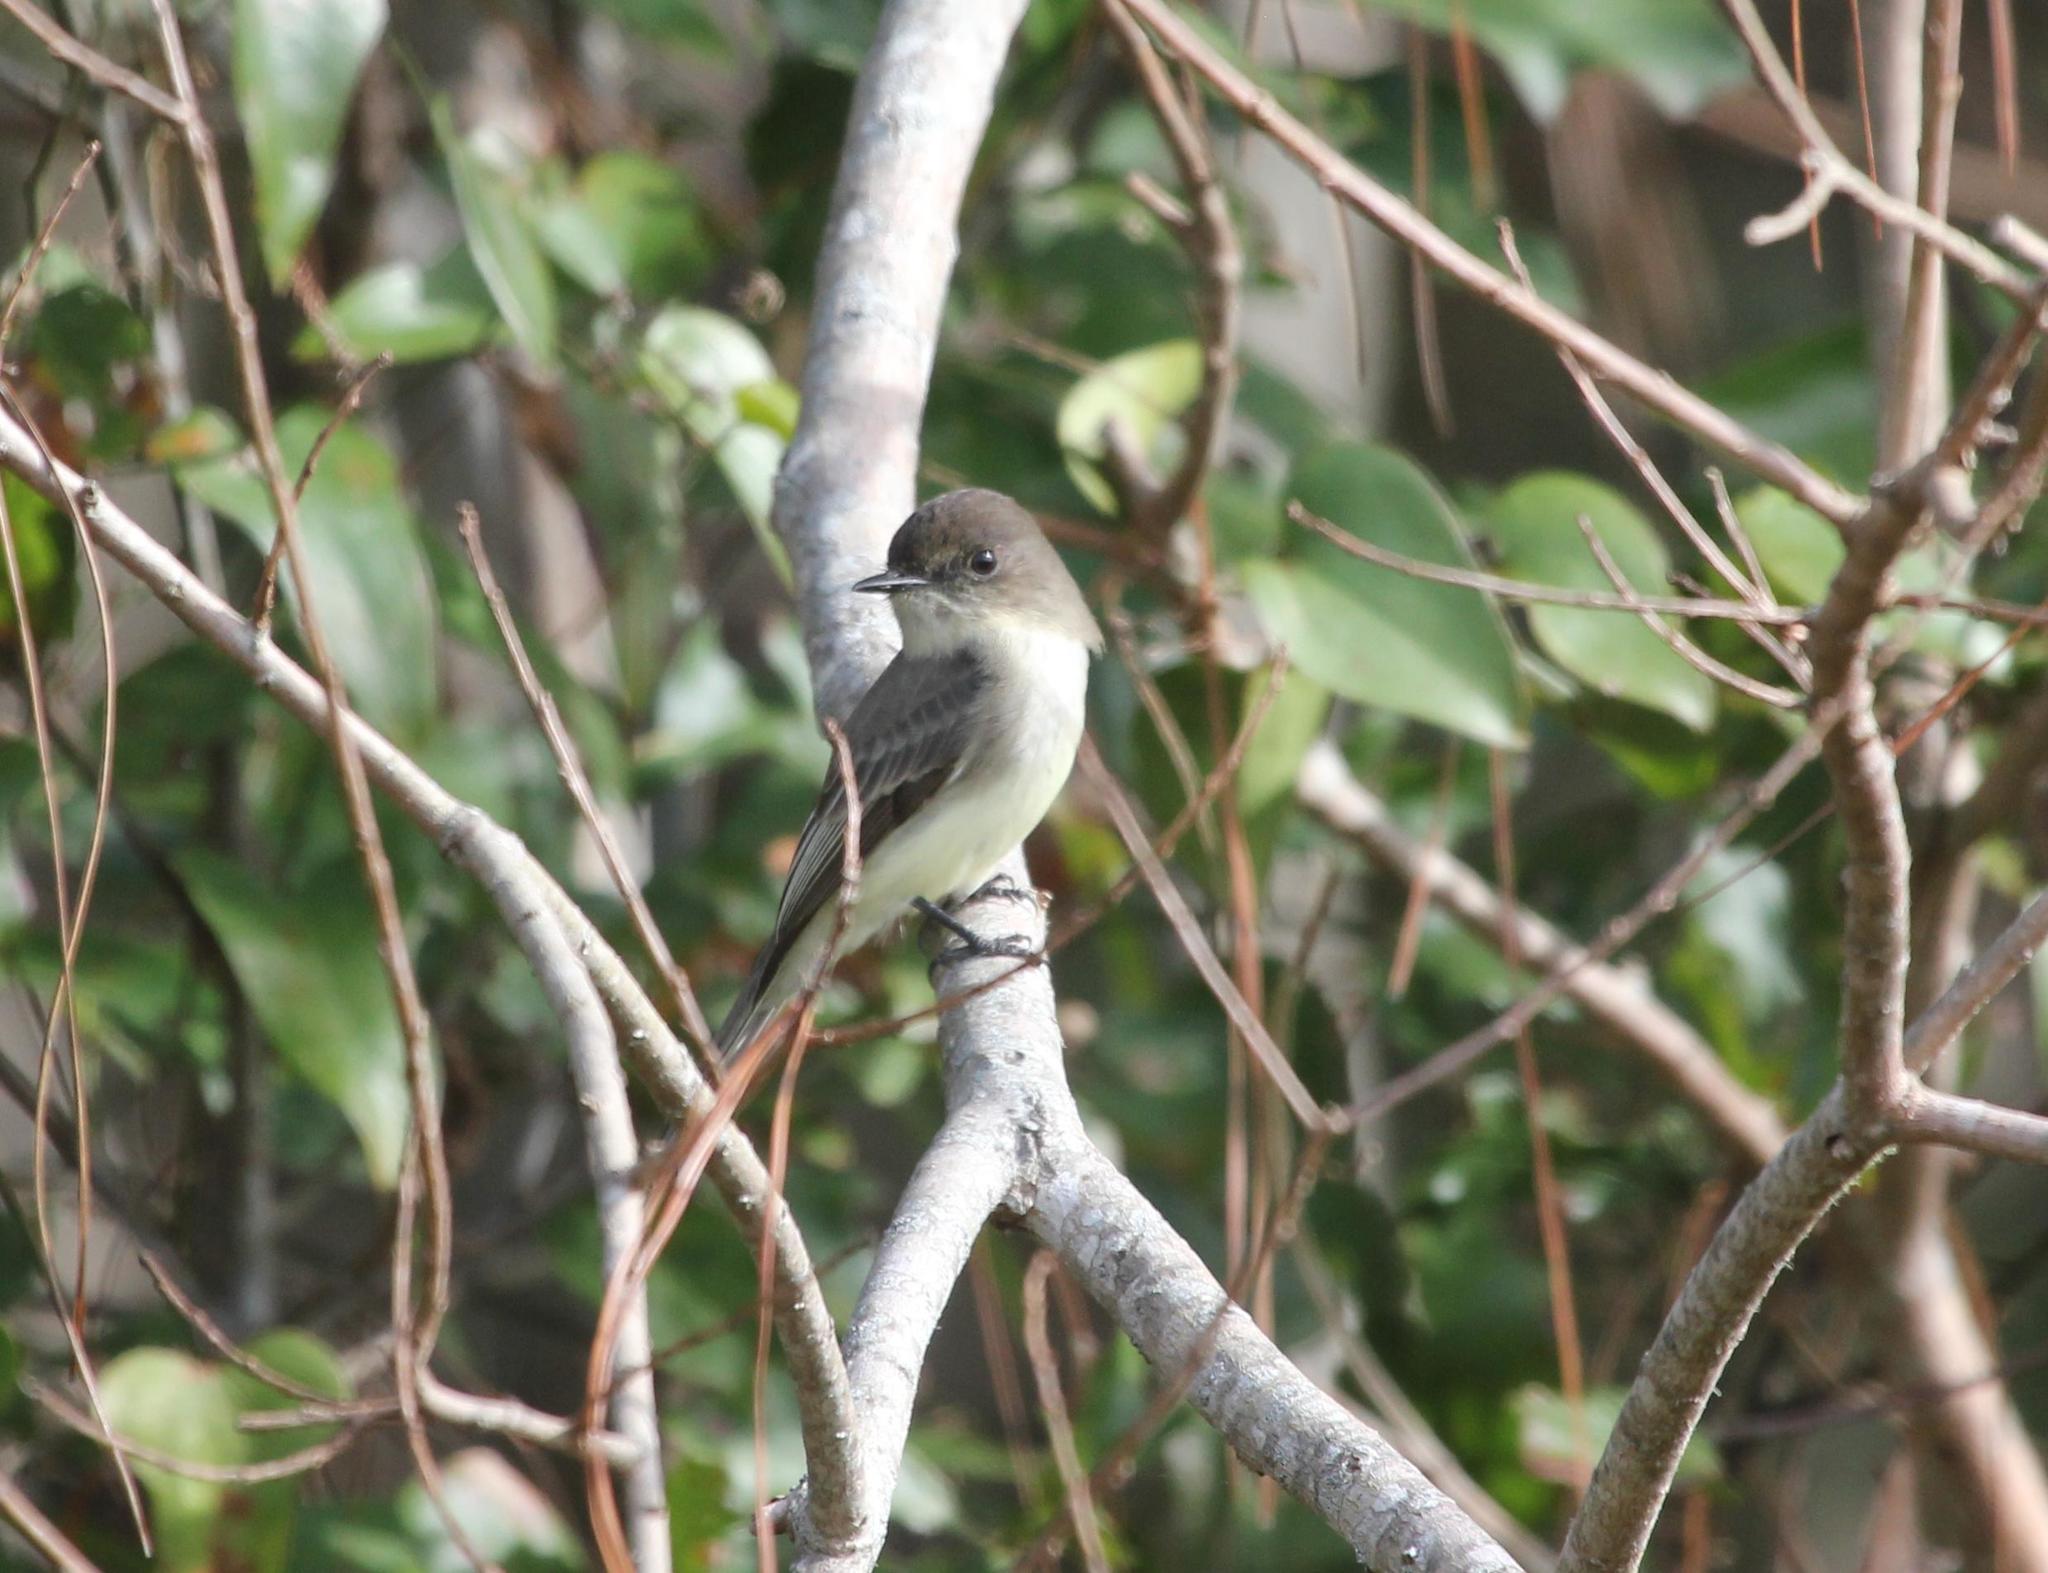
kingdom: Animalia
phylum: Chordata
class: Aves
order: Passeriformes
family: Tyrannidae
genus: Sayornis
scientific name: Sayornis phoebe
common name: Eastern phoebe
